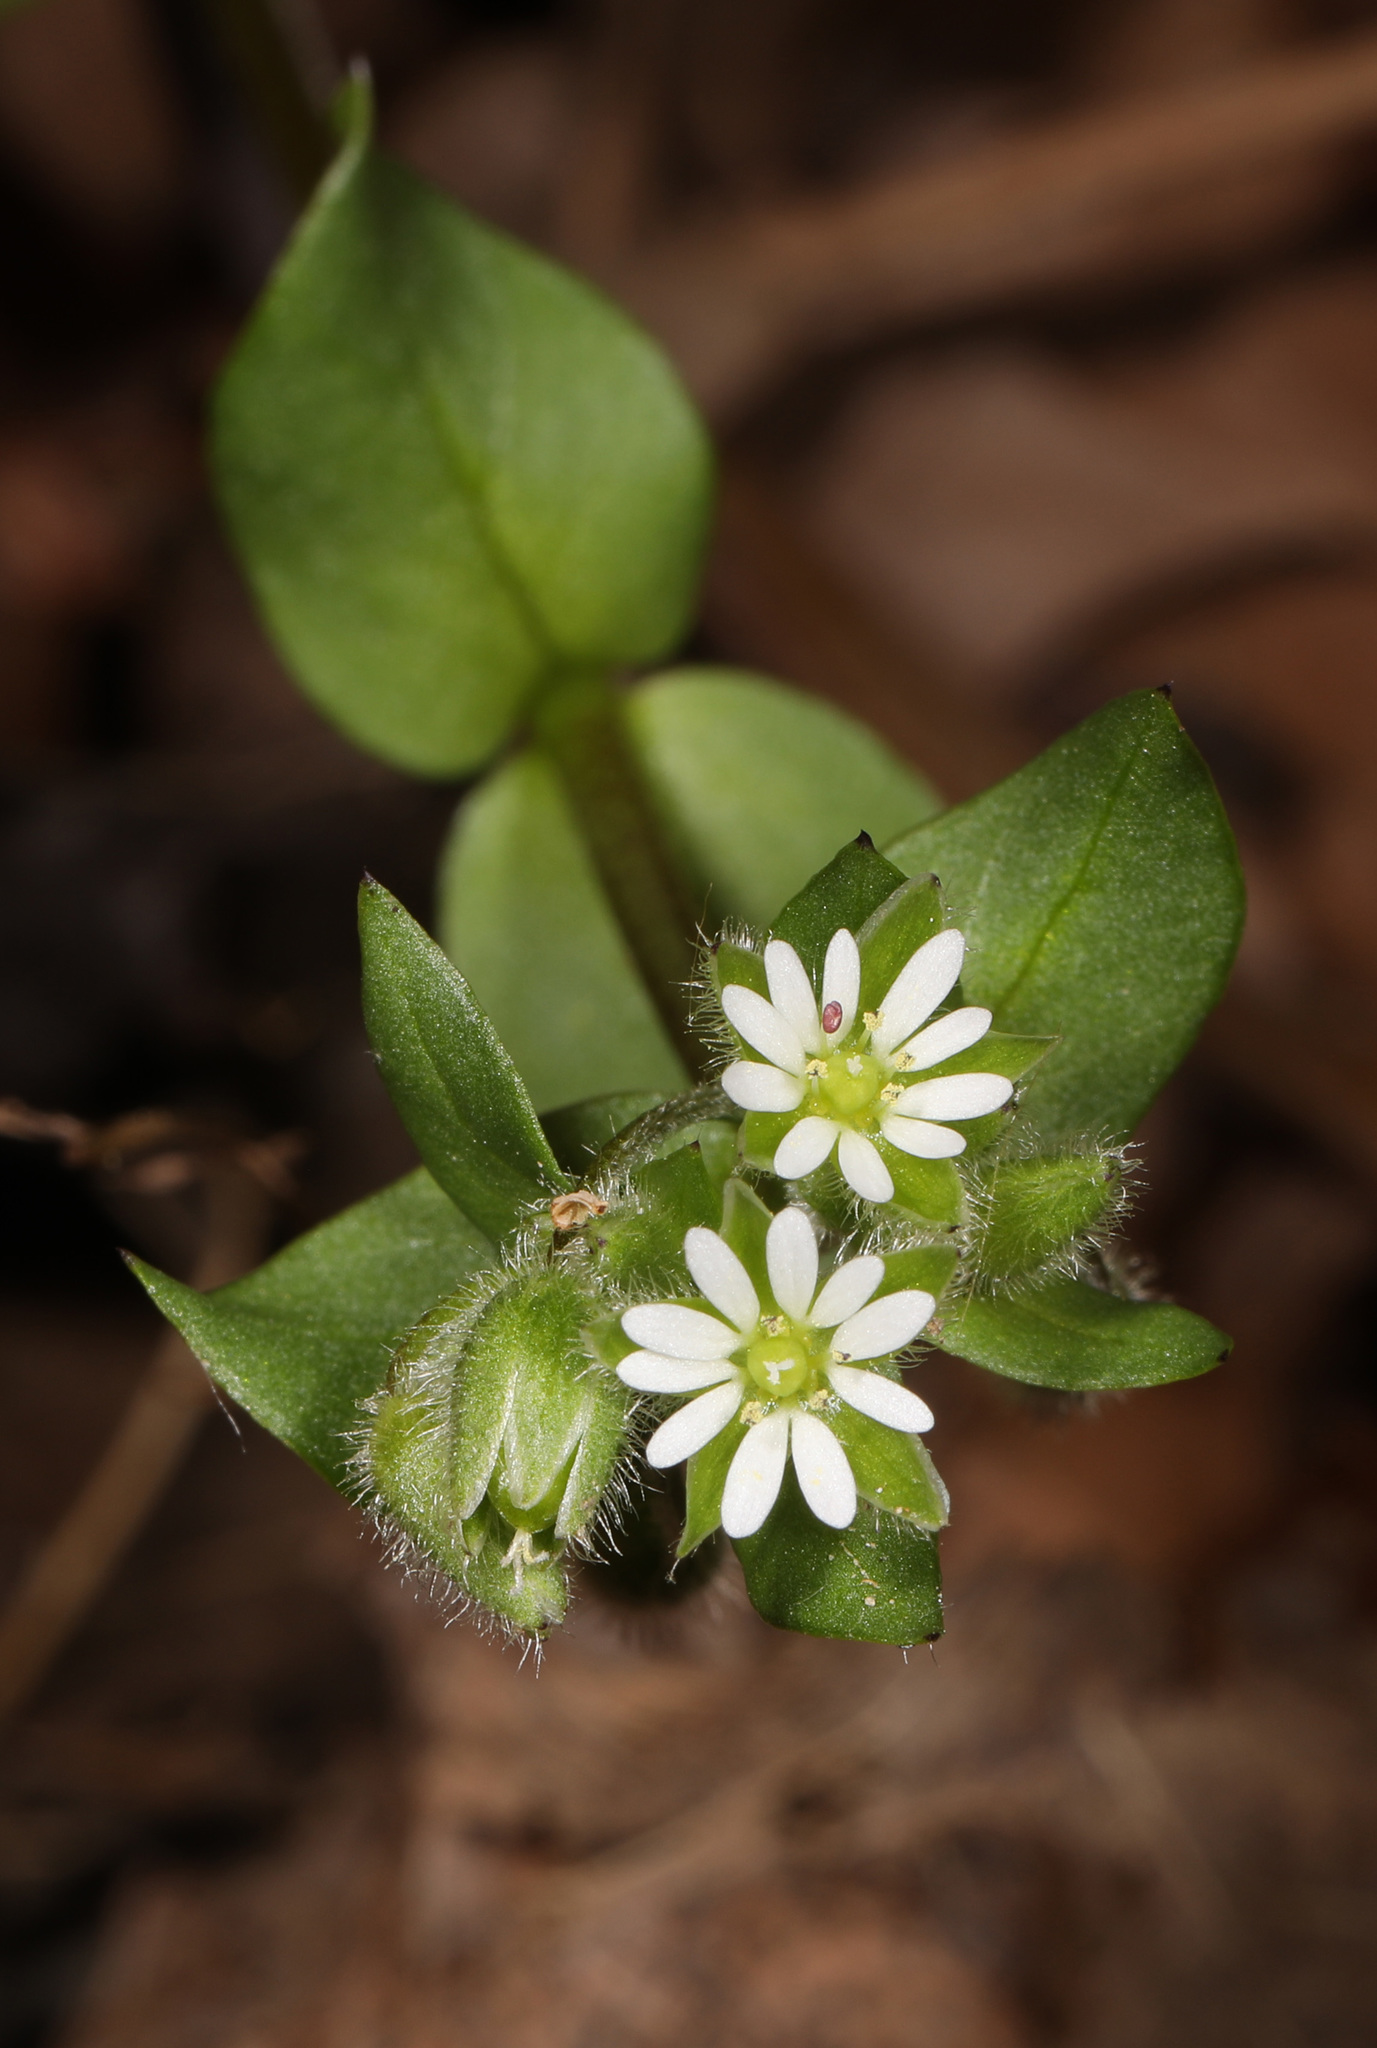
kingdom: Plantae
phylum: Tracheophyta
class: Magnoliopsida
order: Caryophyllales
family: Caryophyllaceae
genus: Stellaria
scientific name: Stellaria media
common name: Common chickweed
